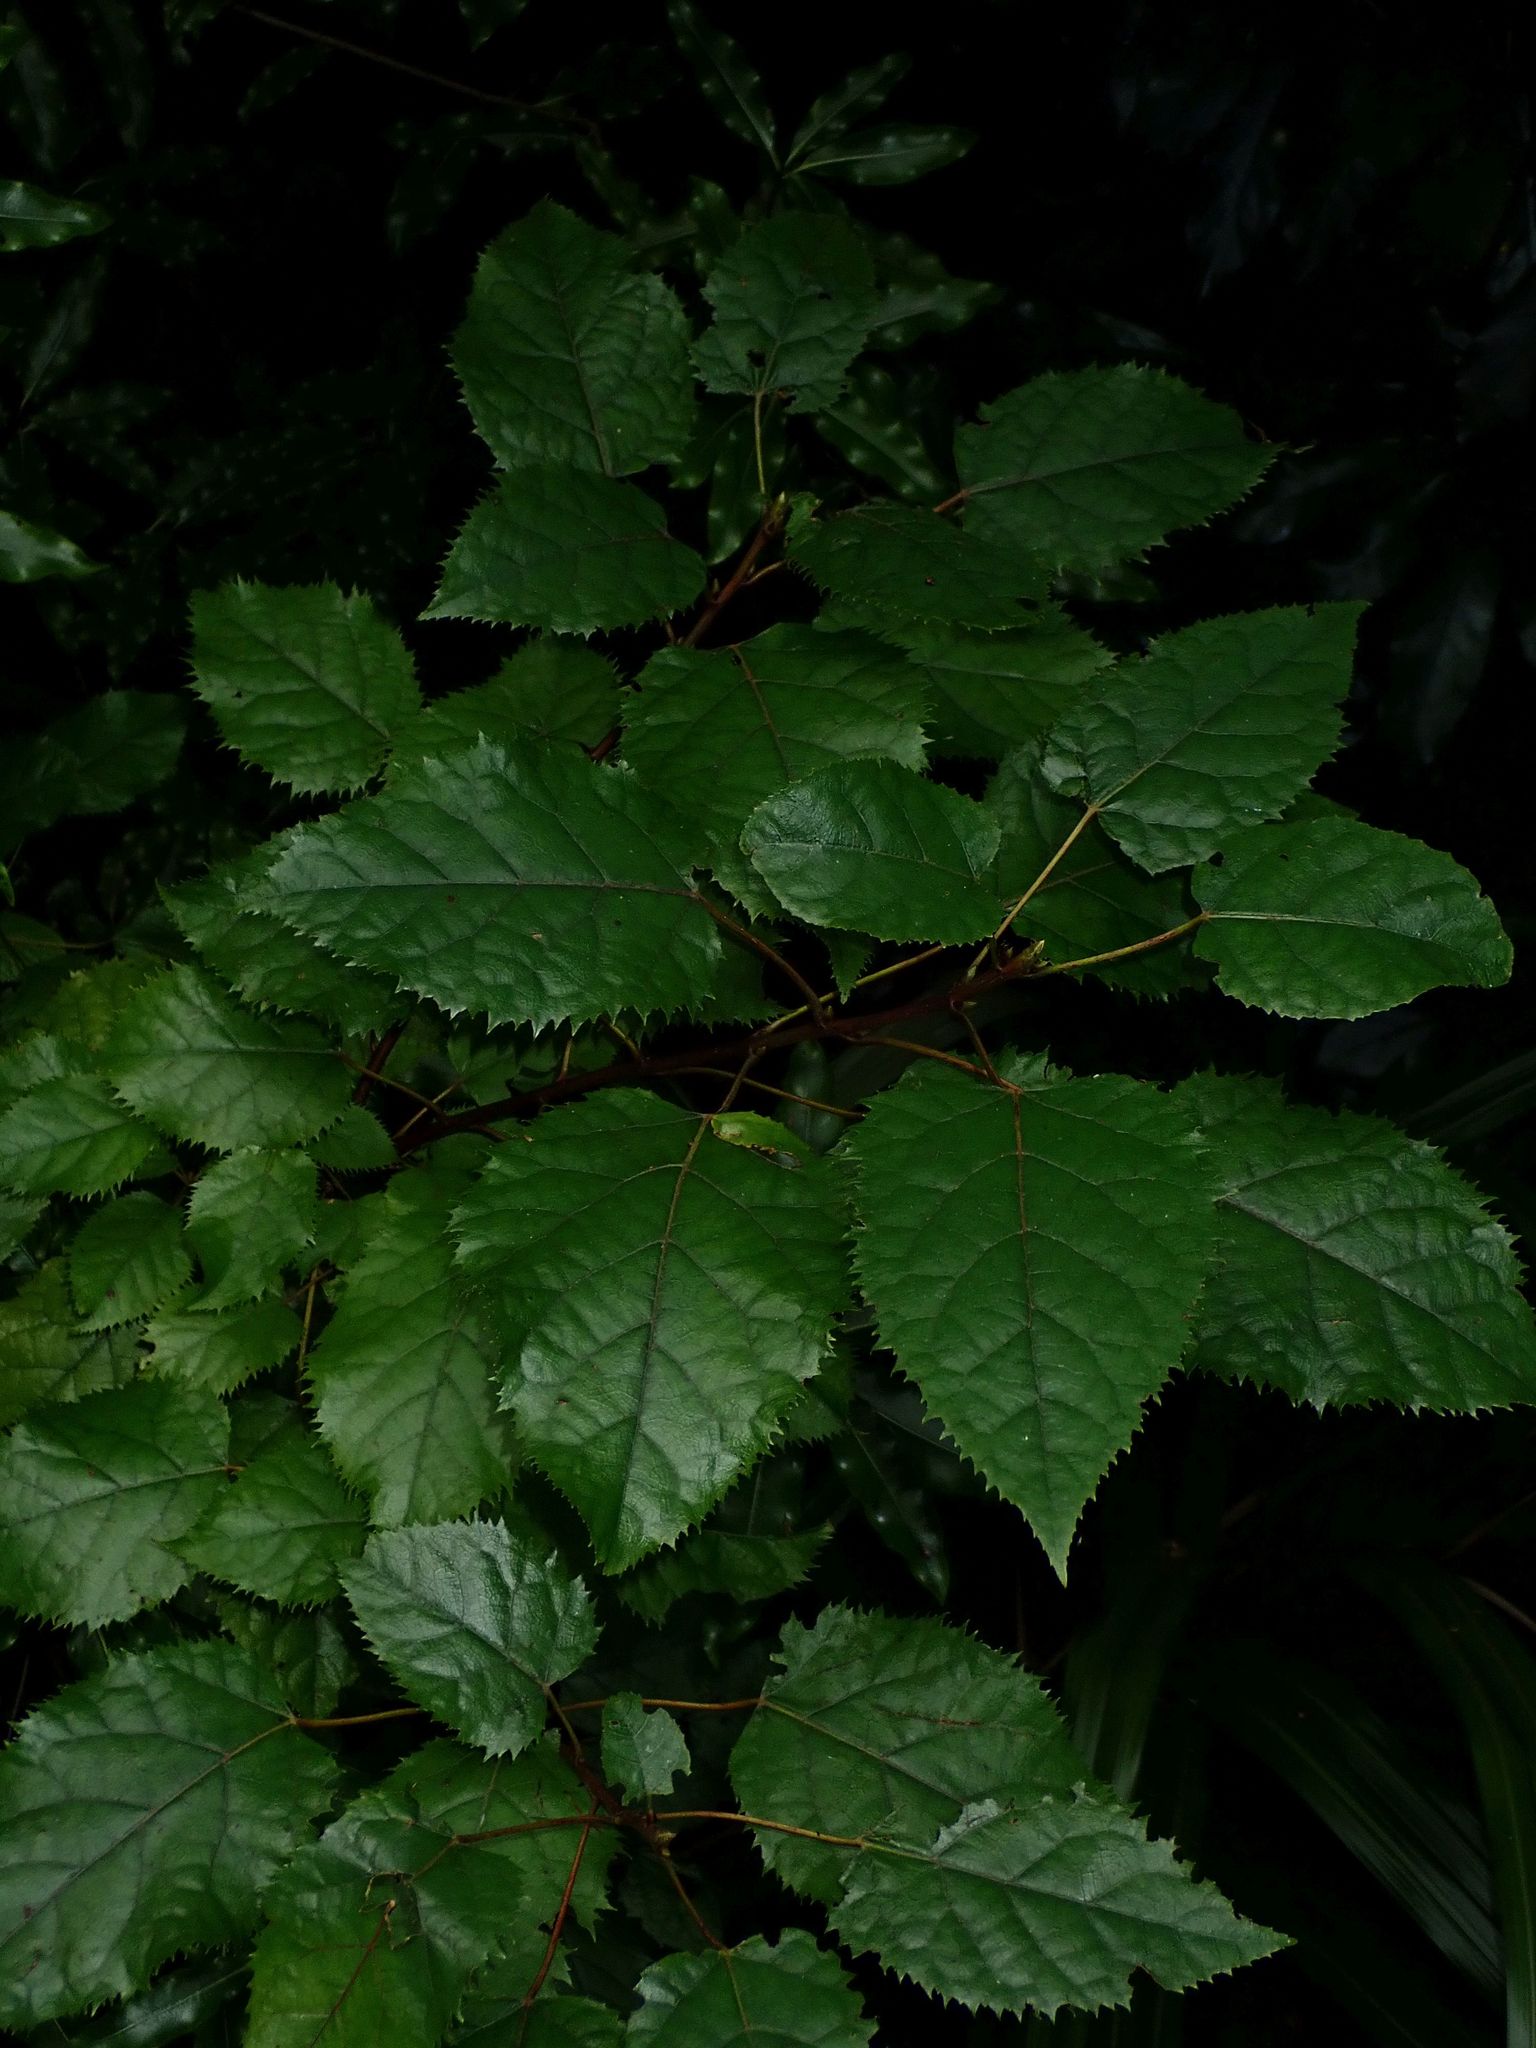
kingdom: Plantae
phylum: Tracheophyta
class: Magnoliopsida
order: Oxalidales
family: Elaeocarpaceae
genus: Aristotelia
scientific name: Aristotelia serrata
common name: New zealand wineberry
